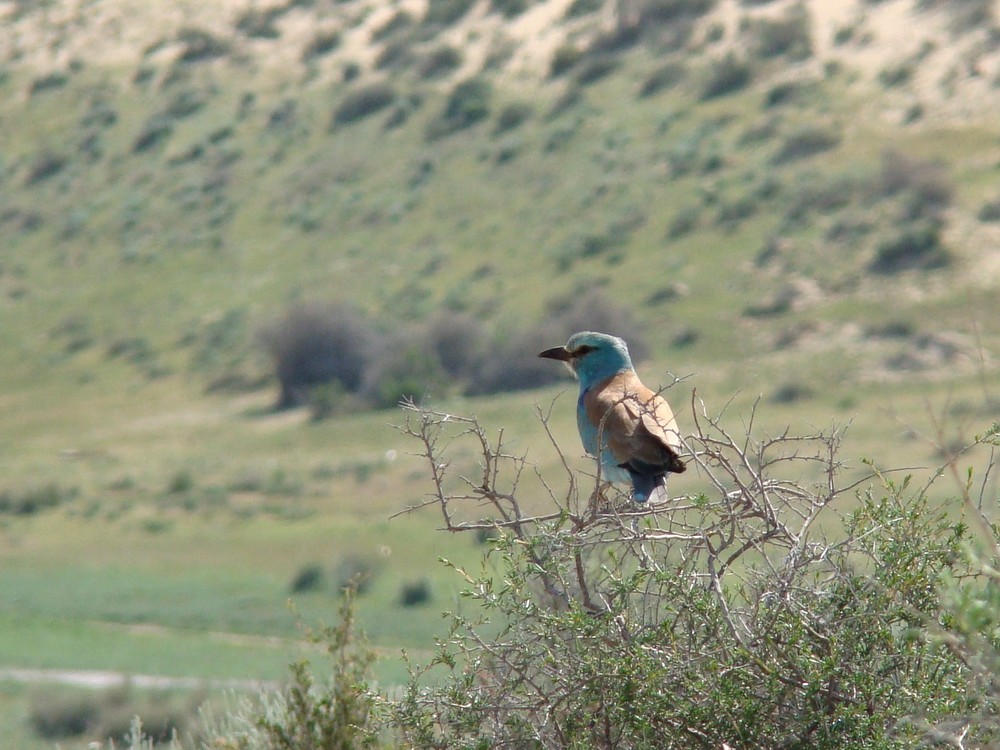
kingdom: Animalia
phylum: Chordata
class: Aves
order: Coraciiformes
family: Coraciidae
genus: Coracias
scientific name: Coracias garrulus
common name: European roller
